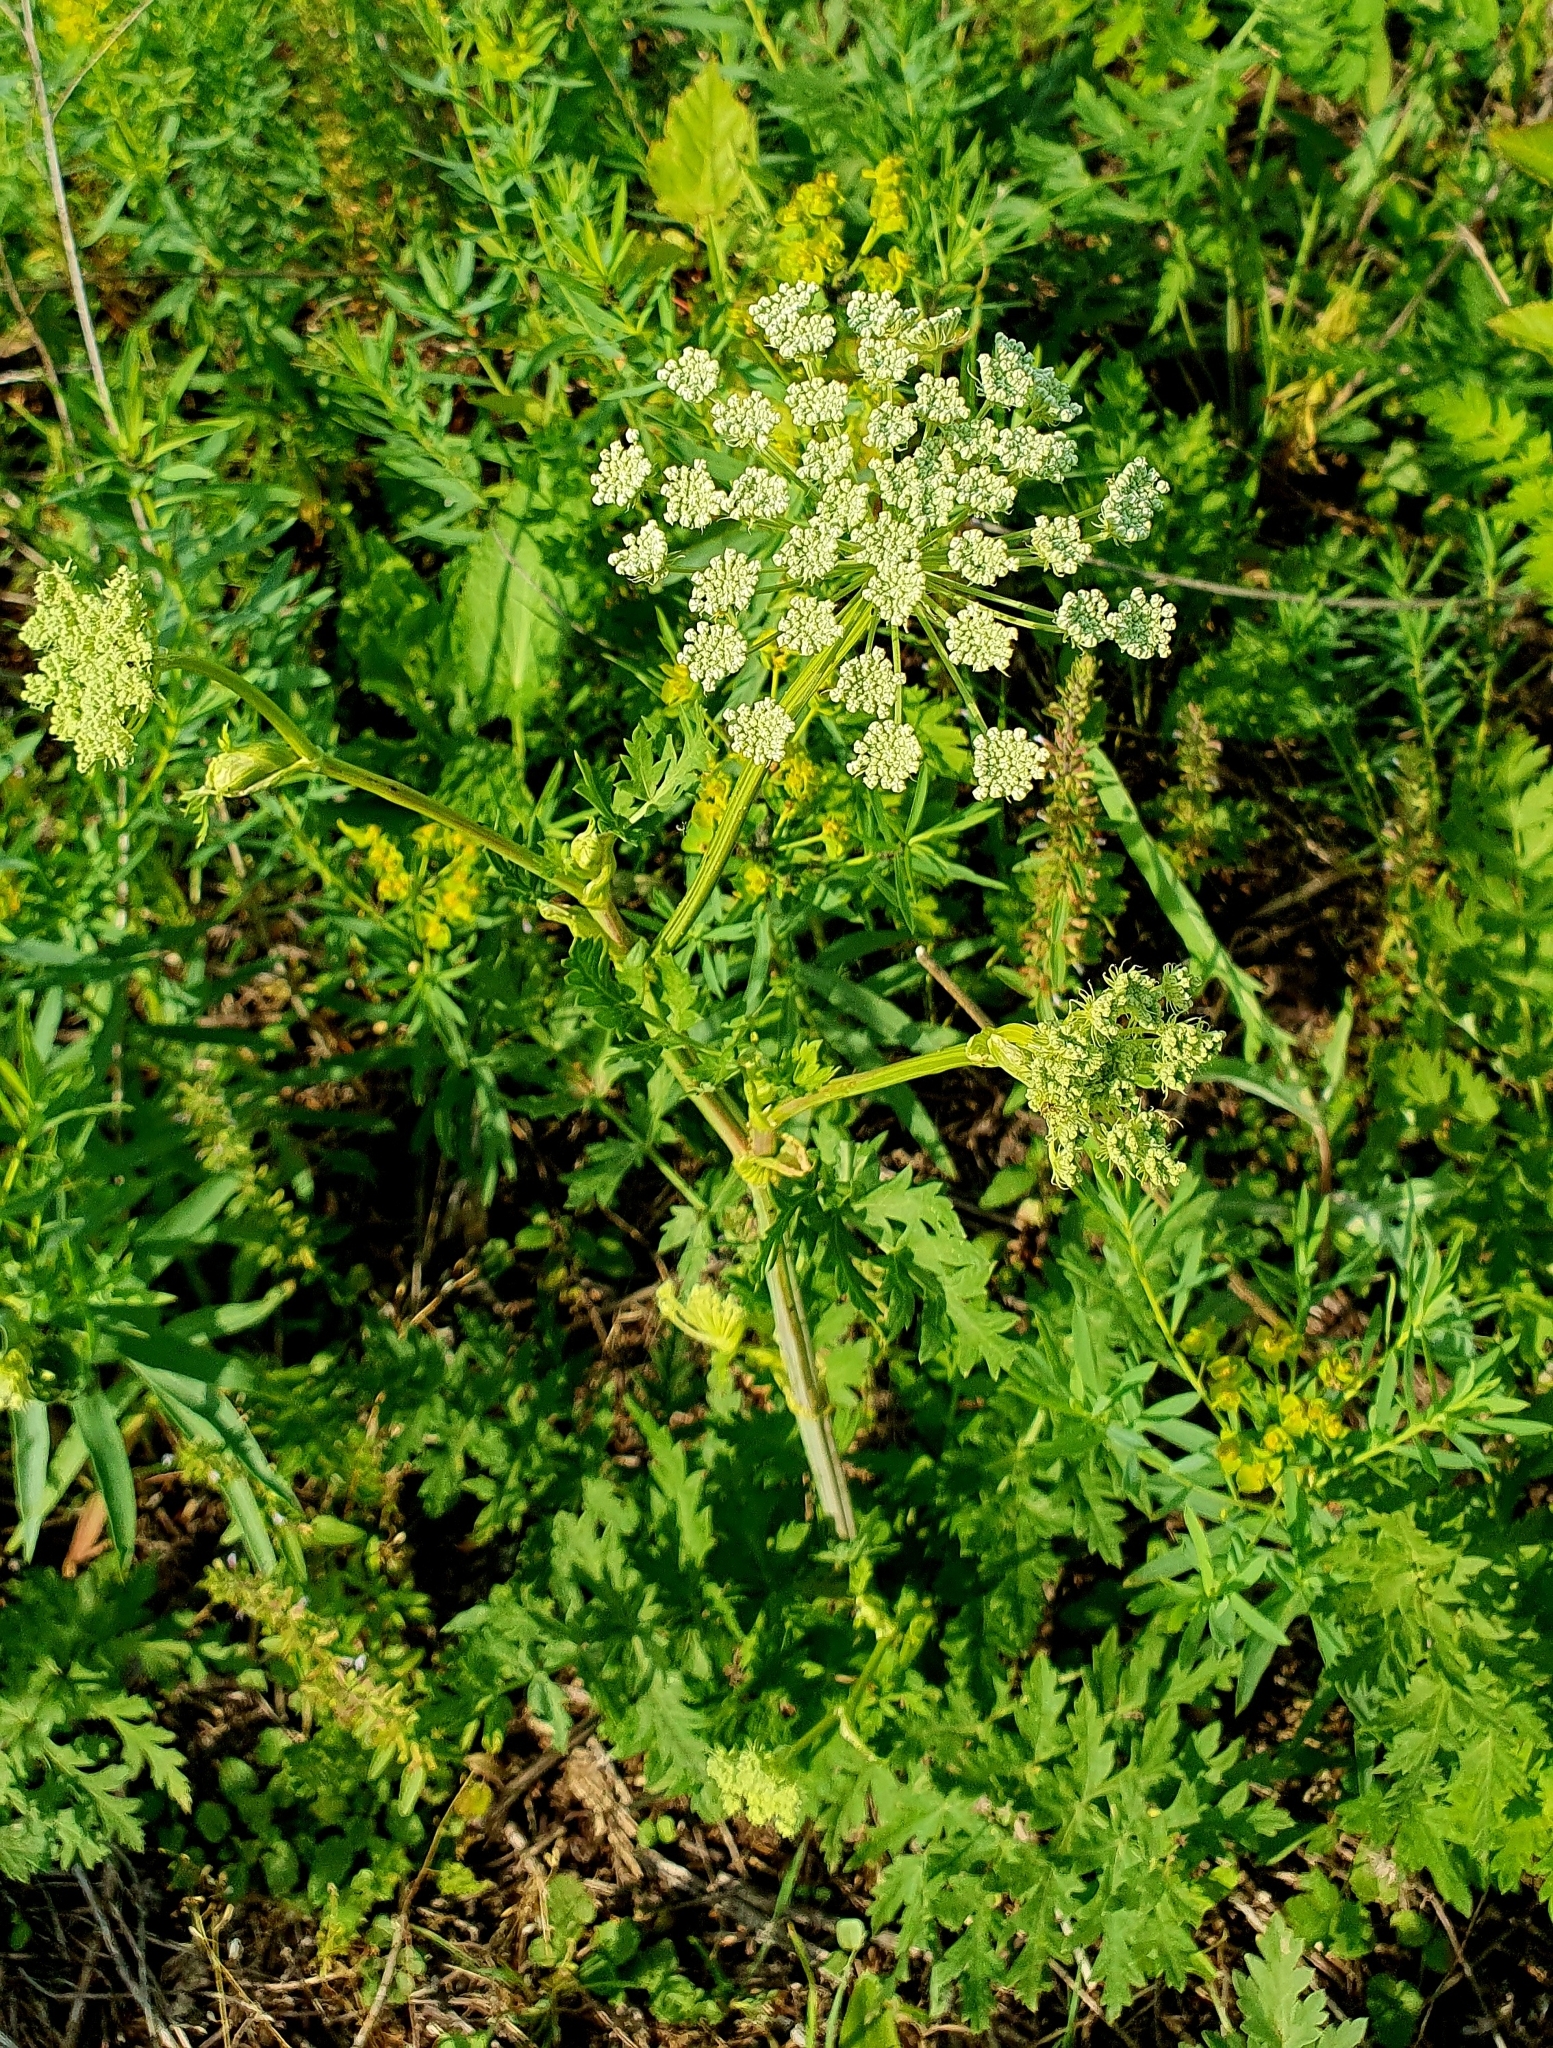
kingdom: Plantae
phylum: Tracheophyta
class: Magnoliopsida
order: Apiales
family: Apiaceae
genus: Seseli
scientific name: Seseli libanotis
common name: Mooncarrot
